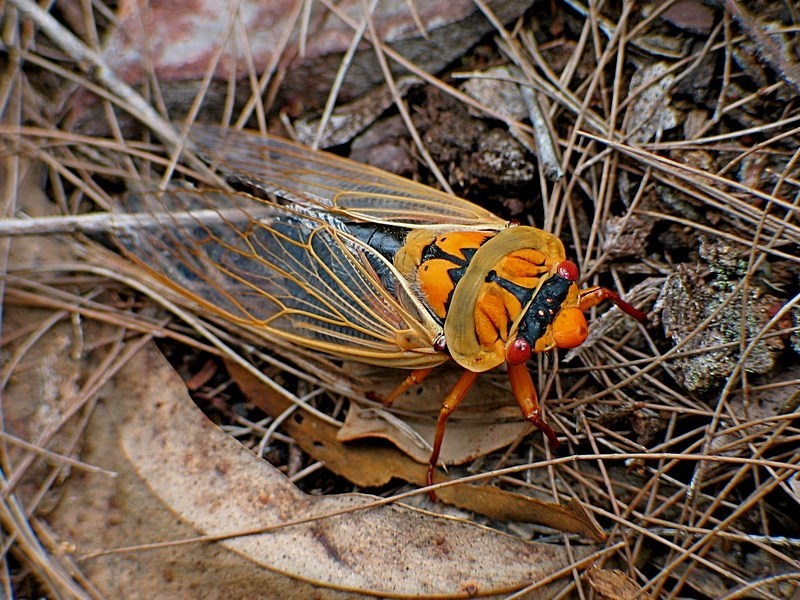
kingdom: Animalia
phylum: Arthropoda
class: Insecta
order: Hemiptera
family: Cicadidae
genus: Cyclochila
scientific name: Cyclochila australasiae
